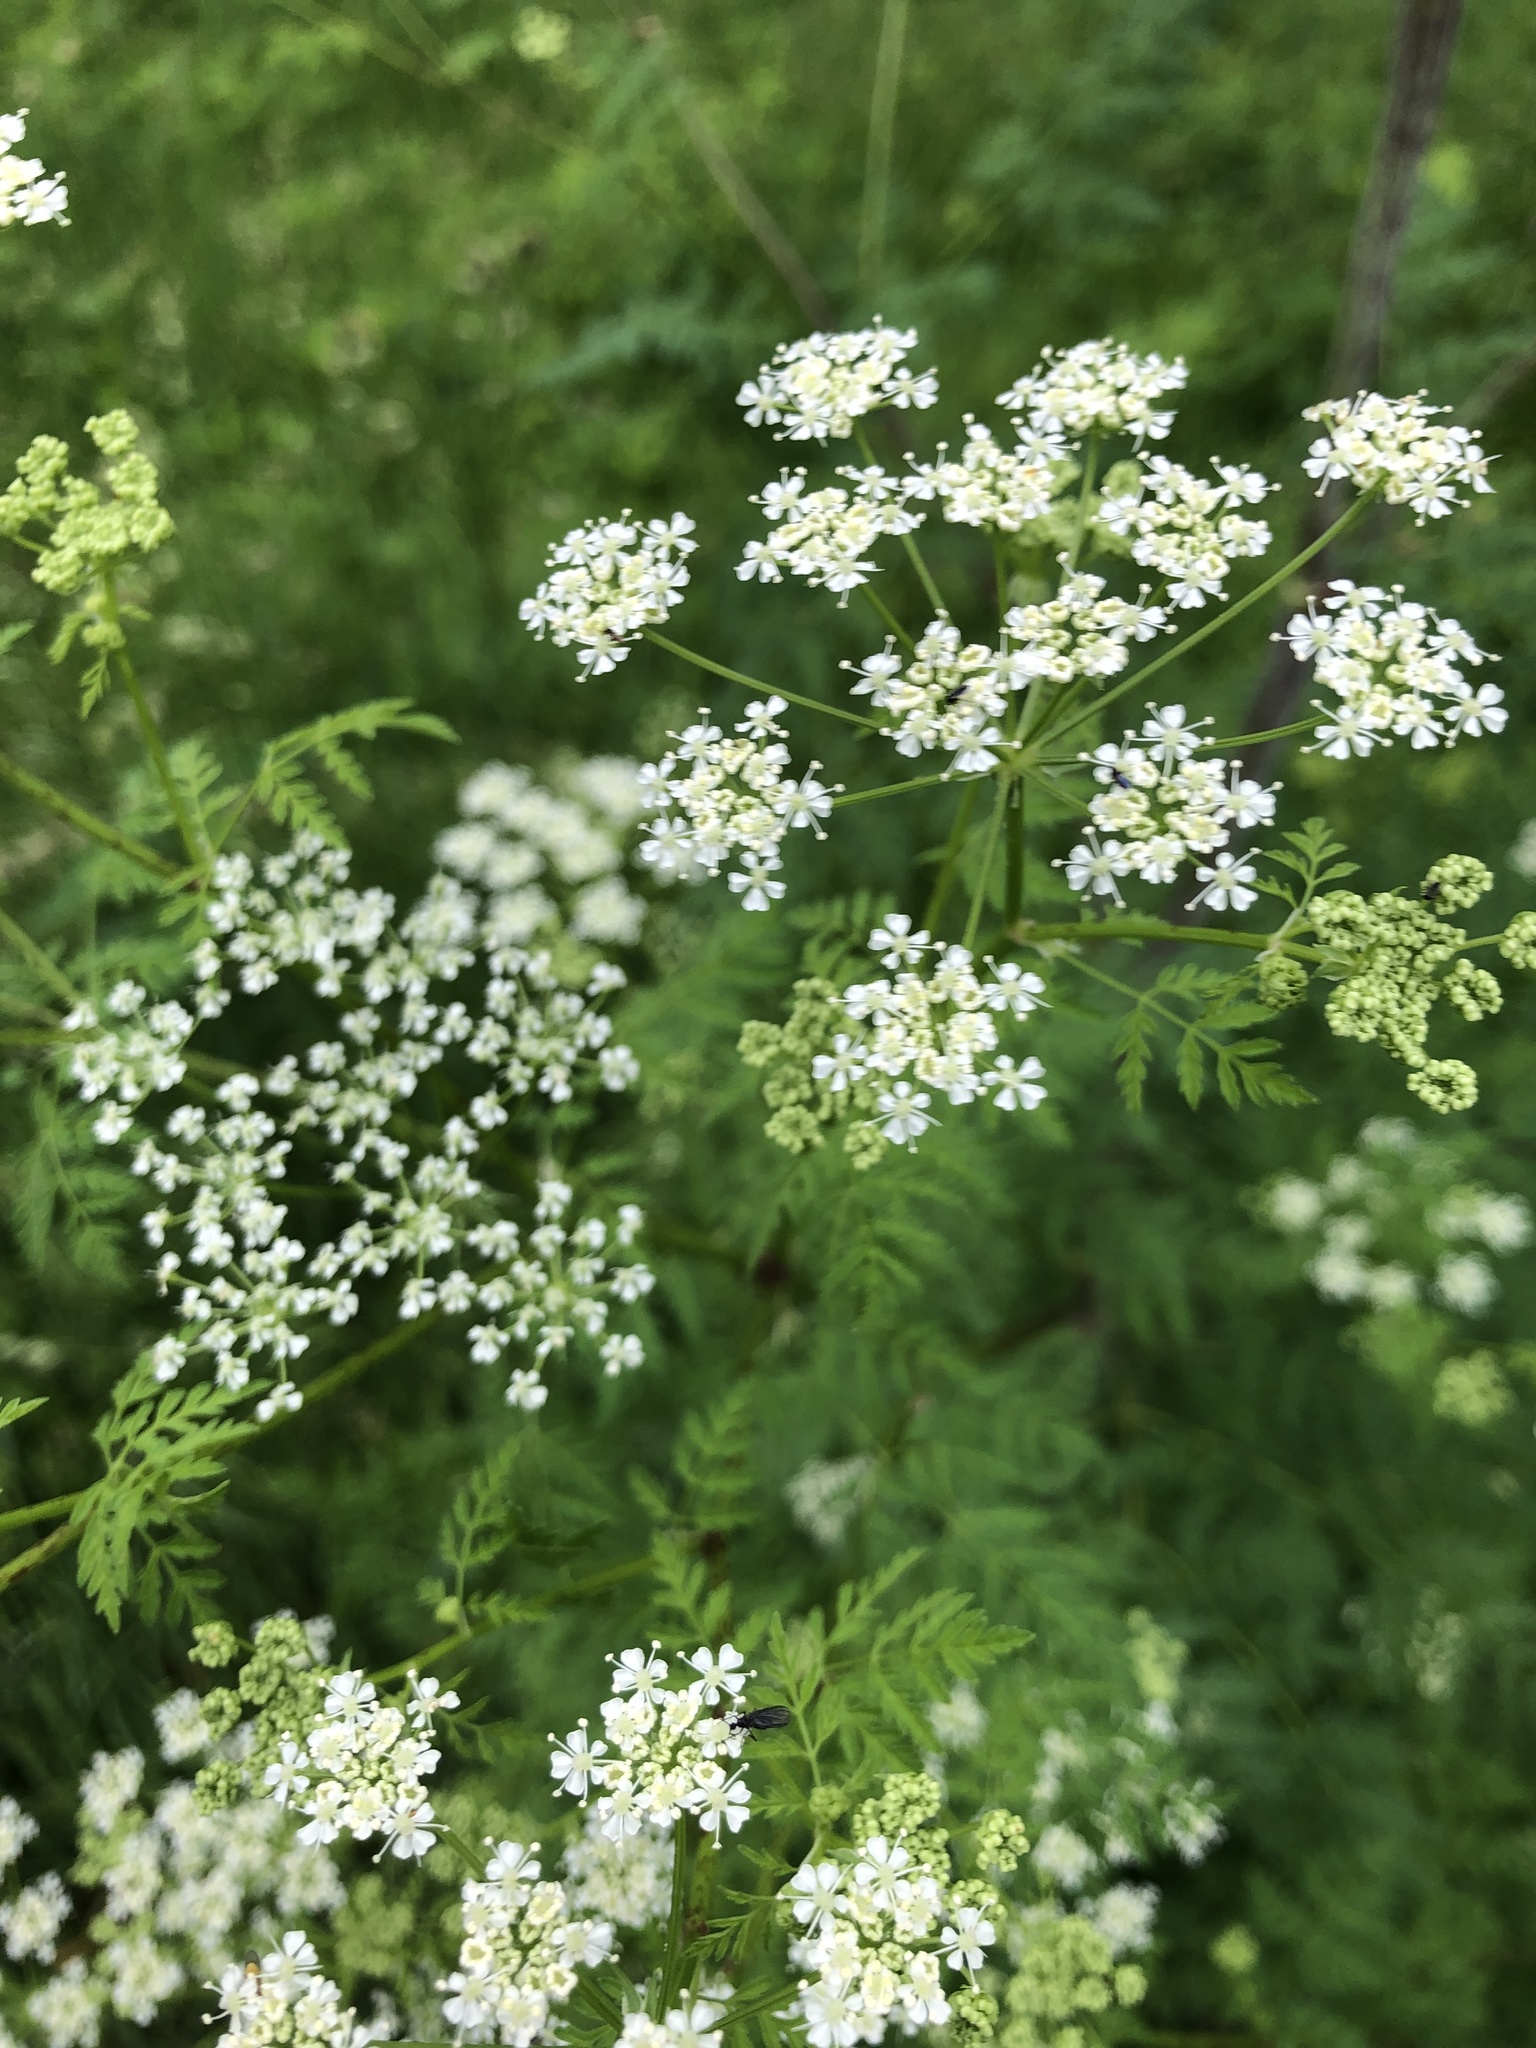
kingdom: Plantae
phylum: Tracheophyta
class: Magnoliopsida
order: Apiales
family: Apiaceae
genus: Conium
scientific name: Conium maculatum
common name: Hemlock
